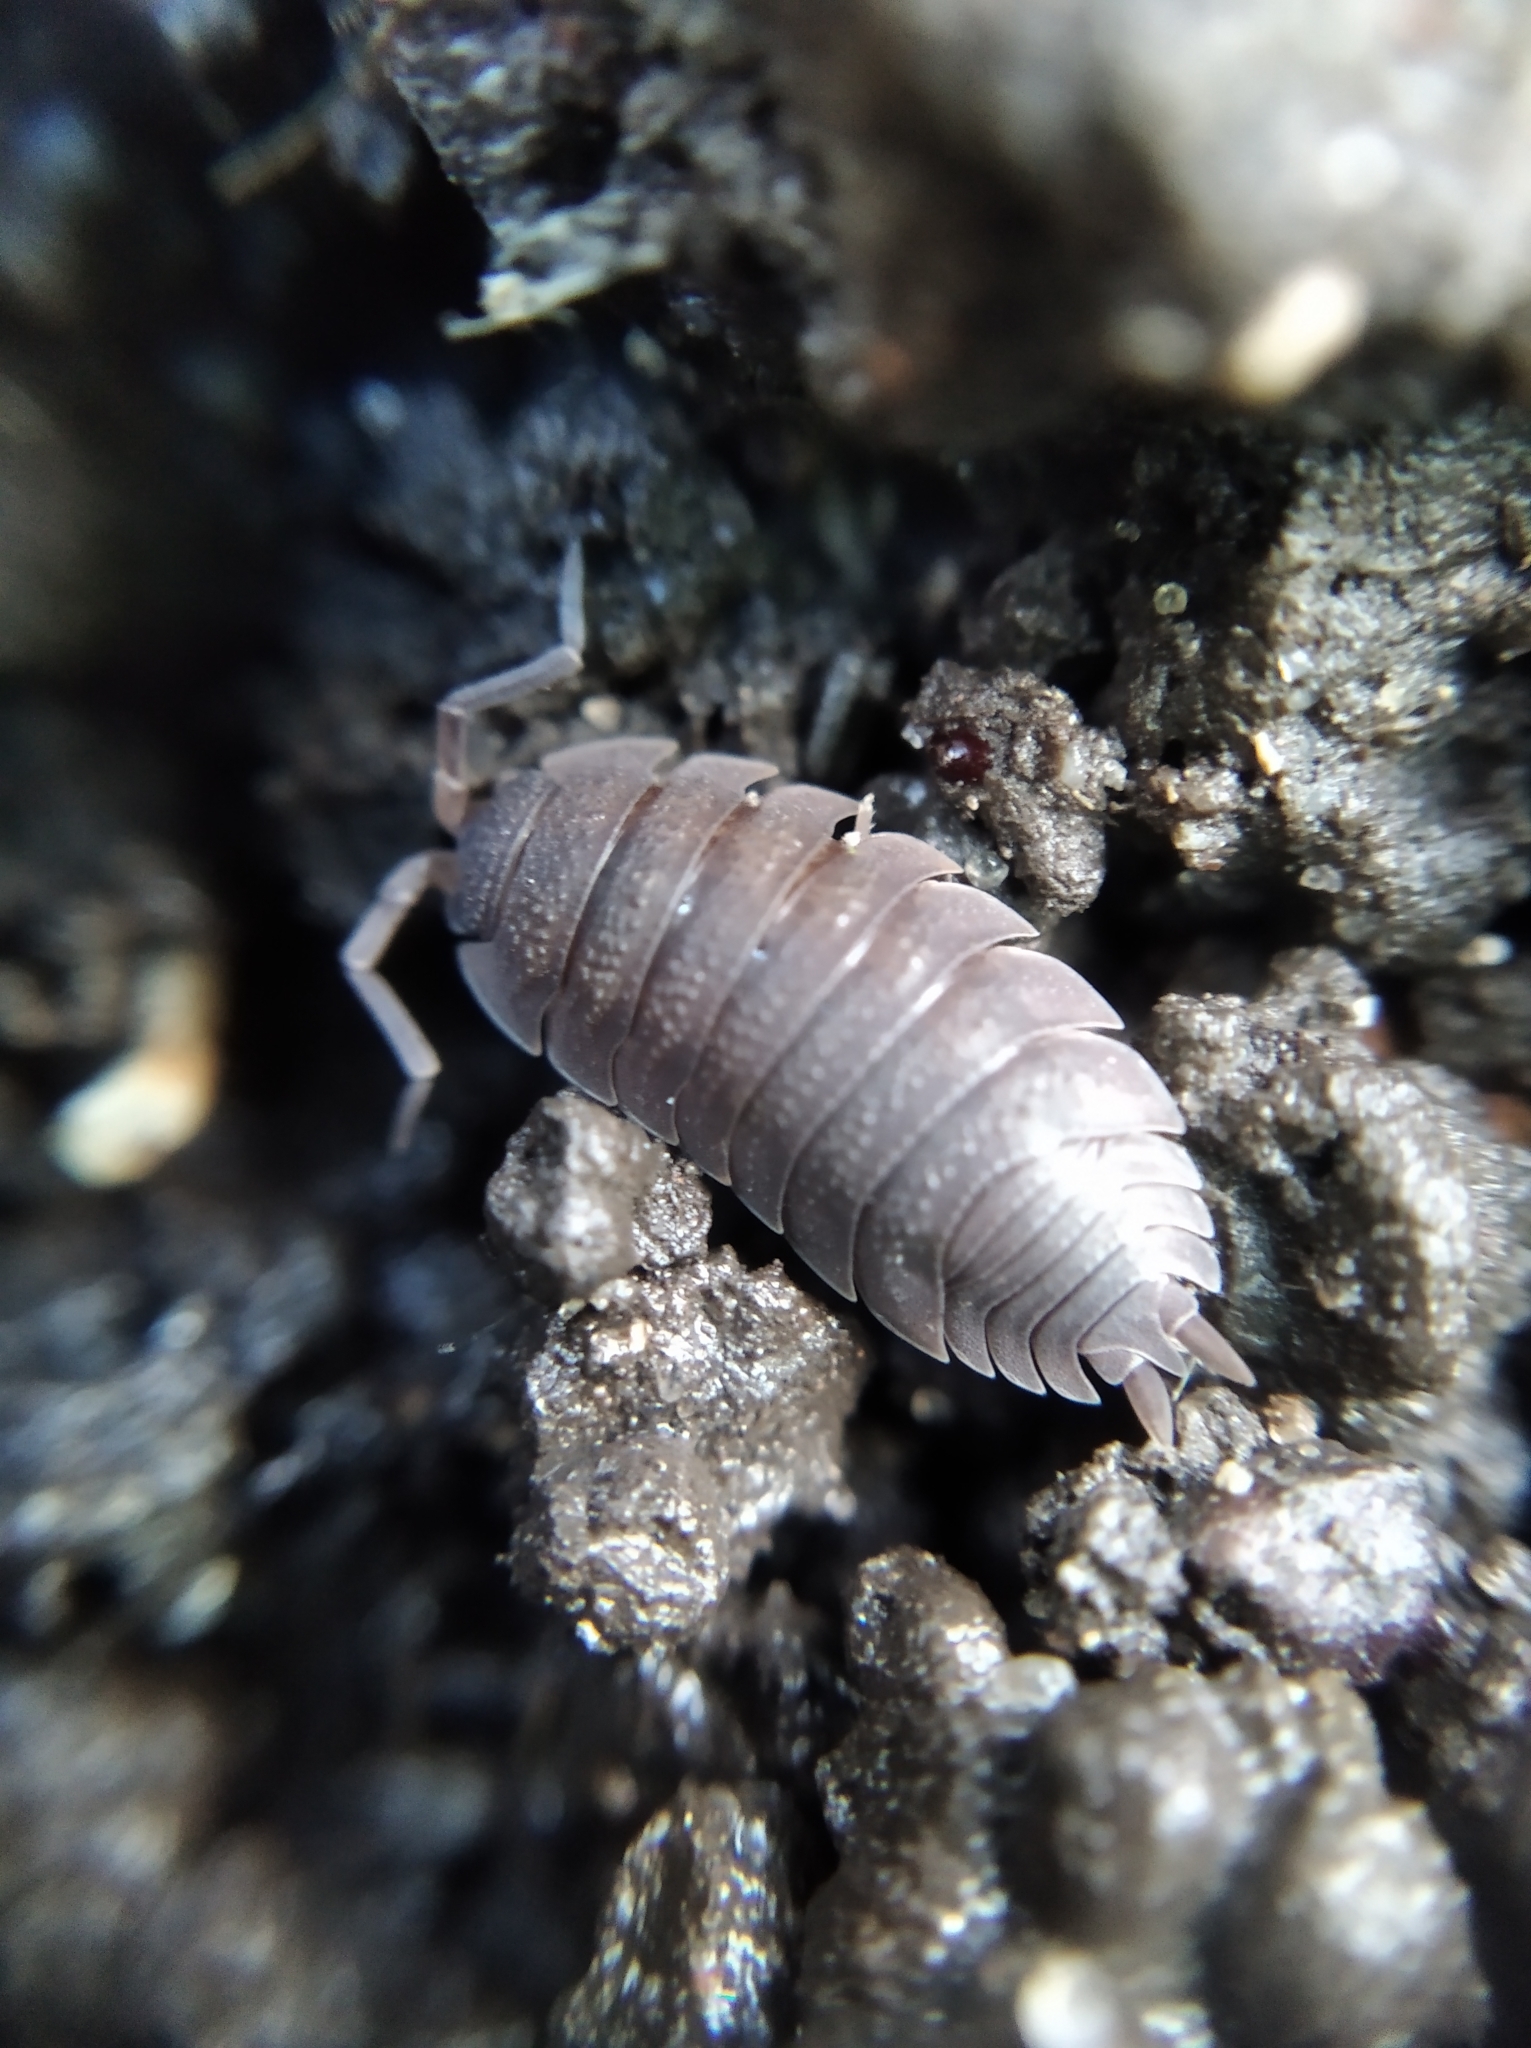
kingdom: Animalia
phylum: Arthropoda
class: Malacostraca
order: Isopoda
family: Porcellionidae
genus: Porcellio
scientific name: Porcellio scaber
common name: Common rough woodlouse
